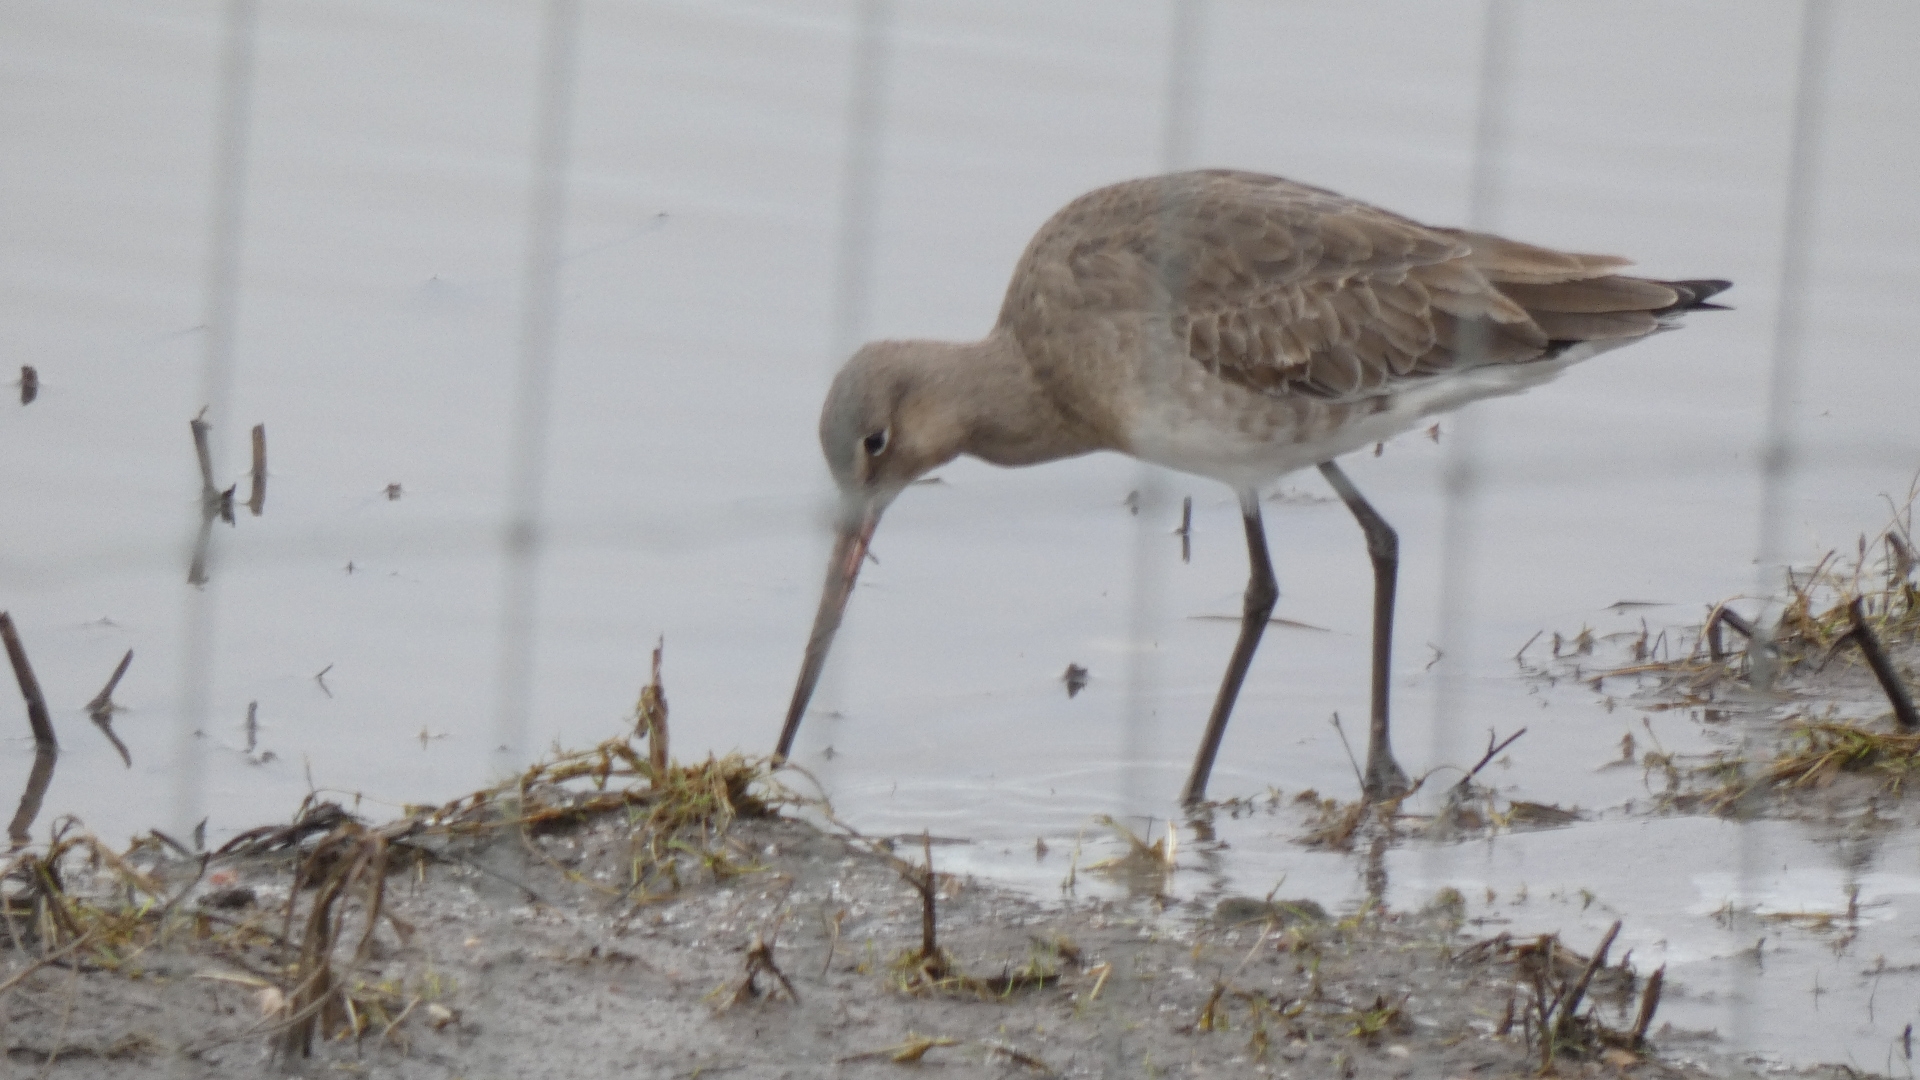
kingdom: Animalia
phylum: Chordata
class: Aves
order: Charadriiformes
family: Scolopacidae
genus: Limosa
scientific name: Limosa limosa
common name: Black-tailed godwit
